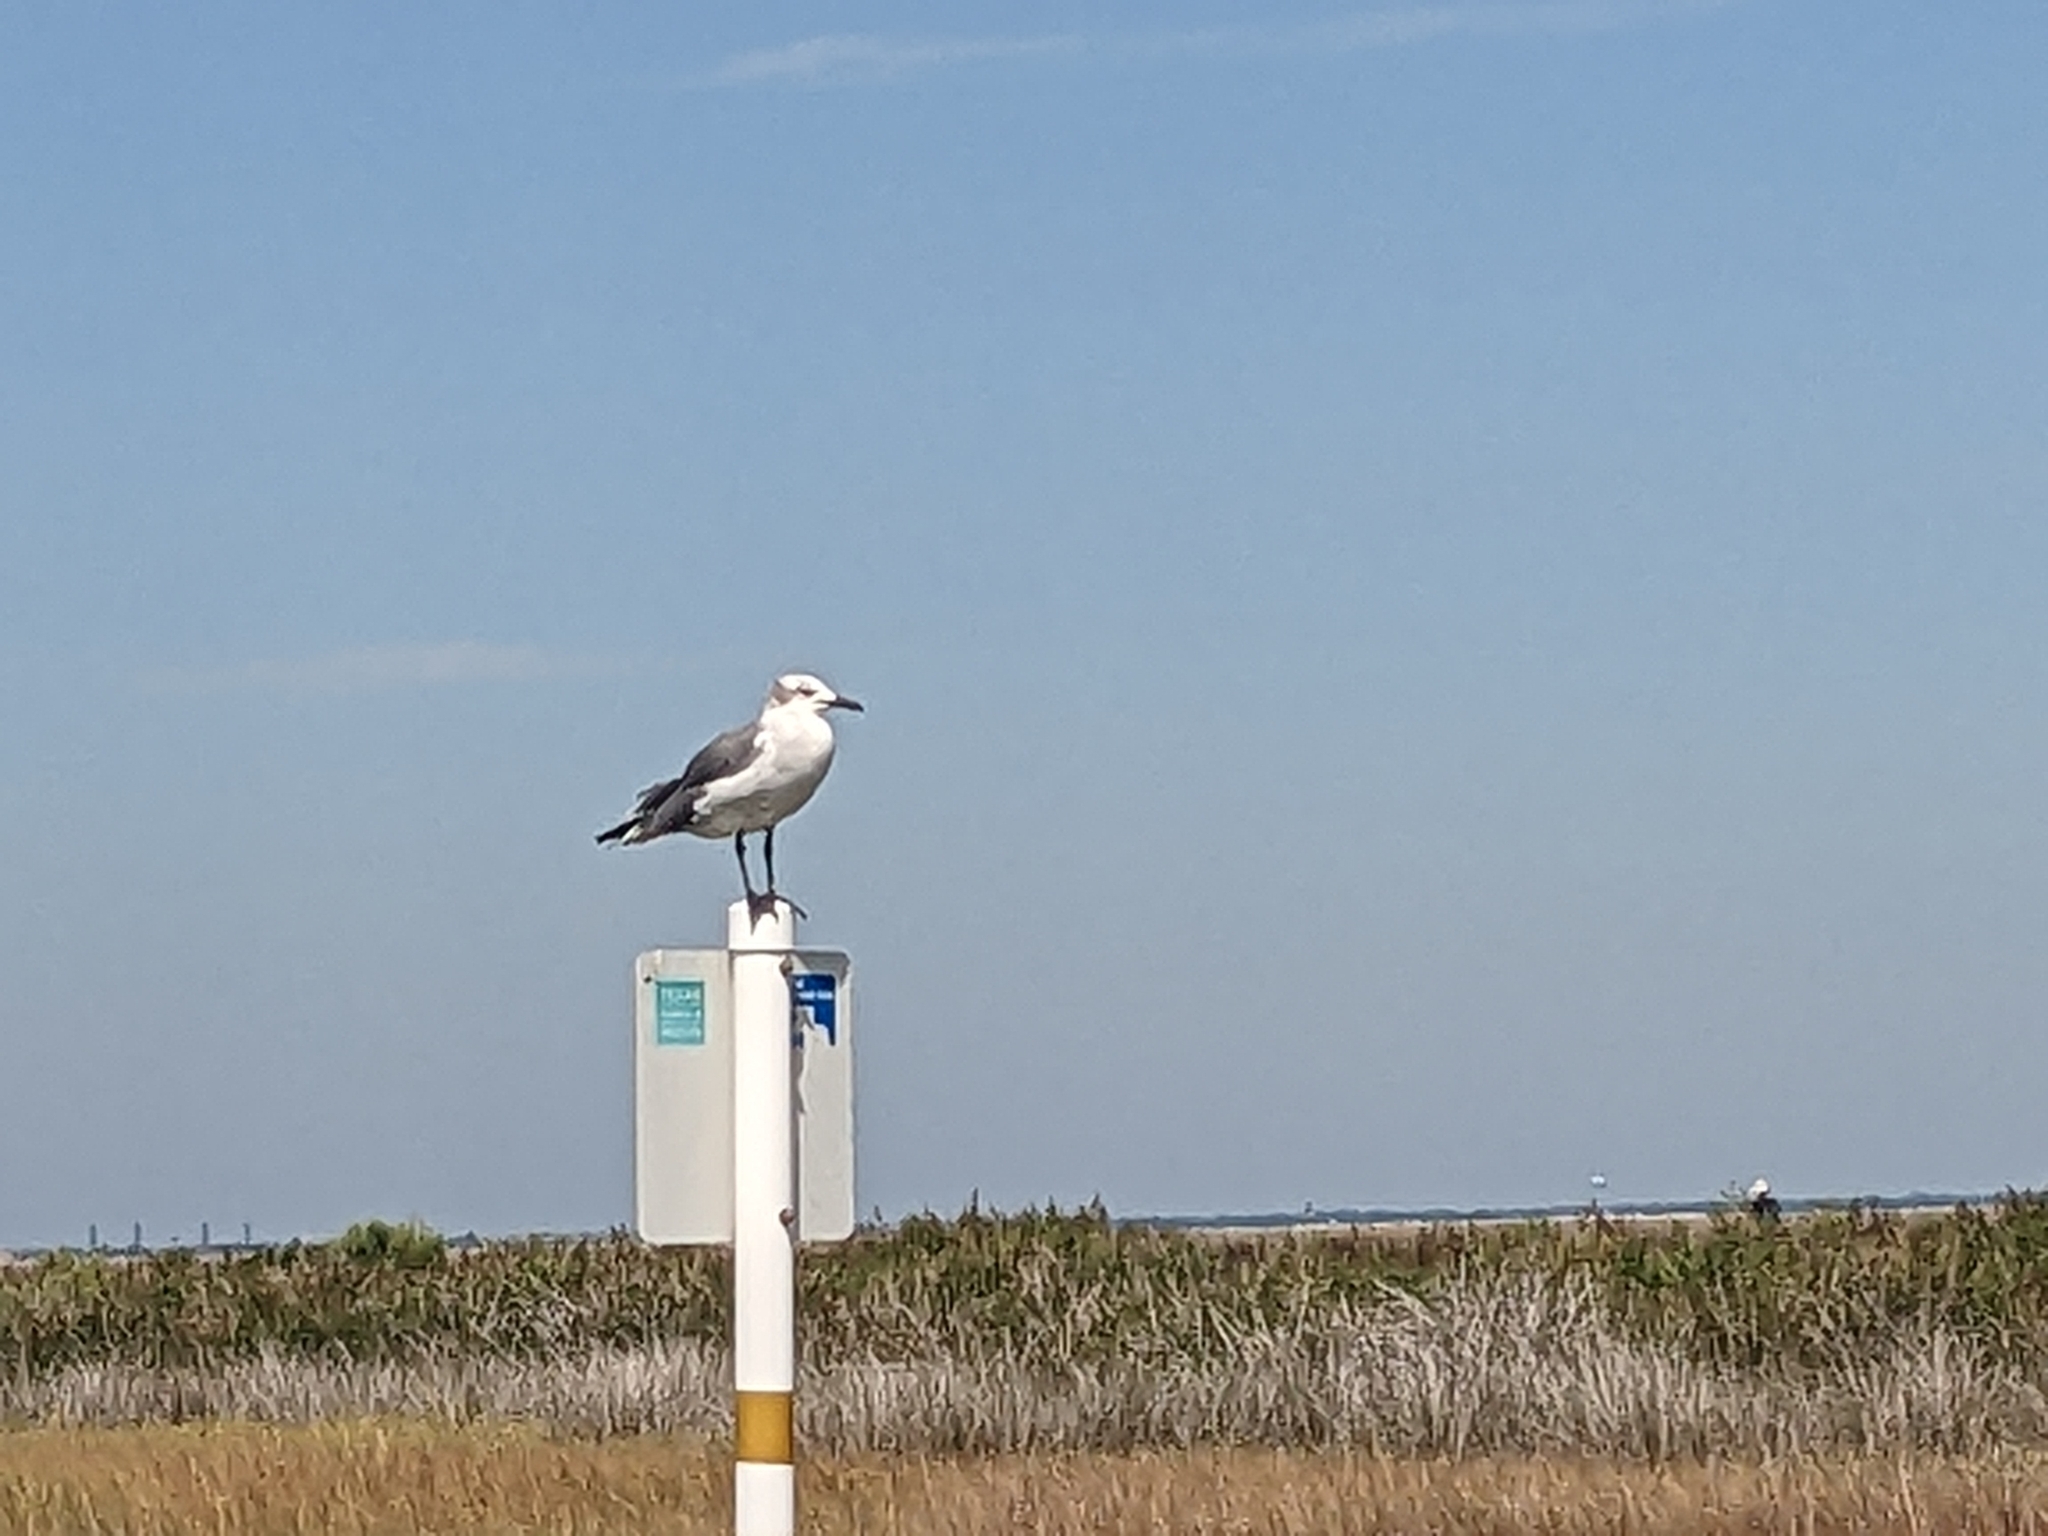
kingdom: Animalia
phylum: Chordata
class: Aves
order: Charadriiformes
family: Laridae
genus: Leucophaeus
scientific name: Leucophaeus atricilla
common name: Laughing gull
